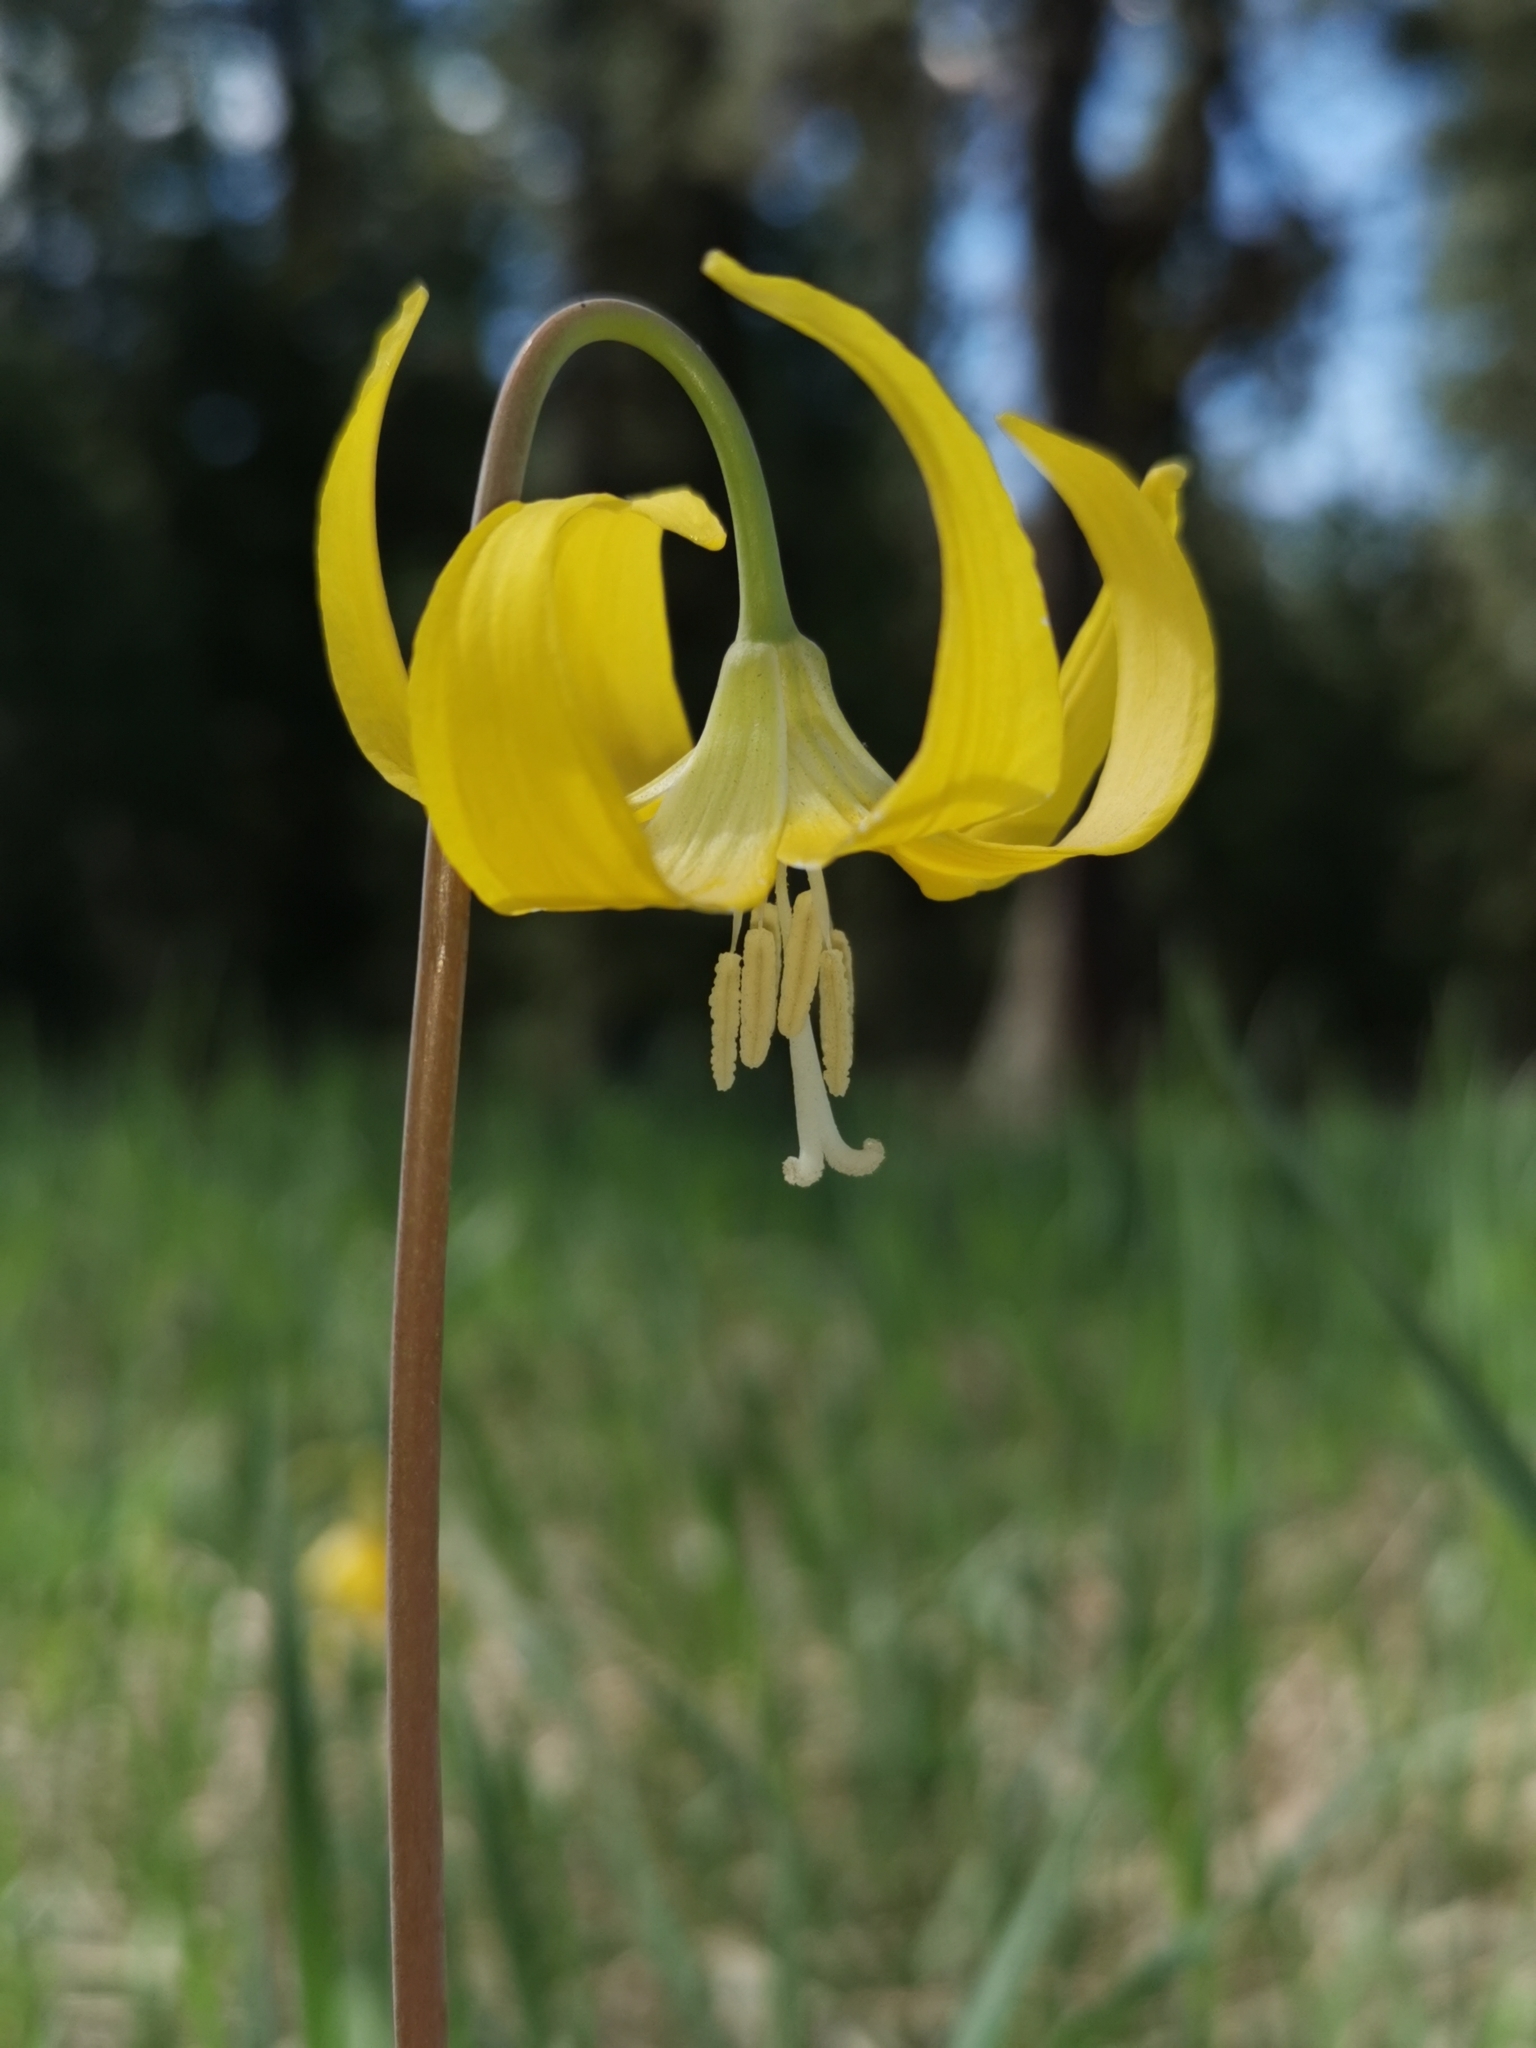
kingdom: Plantae
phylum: Tracheophyta
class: Liliopsida
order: Liliales
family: Liliaceae
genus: Erythronium
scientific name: Erythronium grandiflorum
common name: Avalanche-lily
